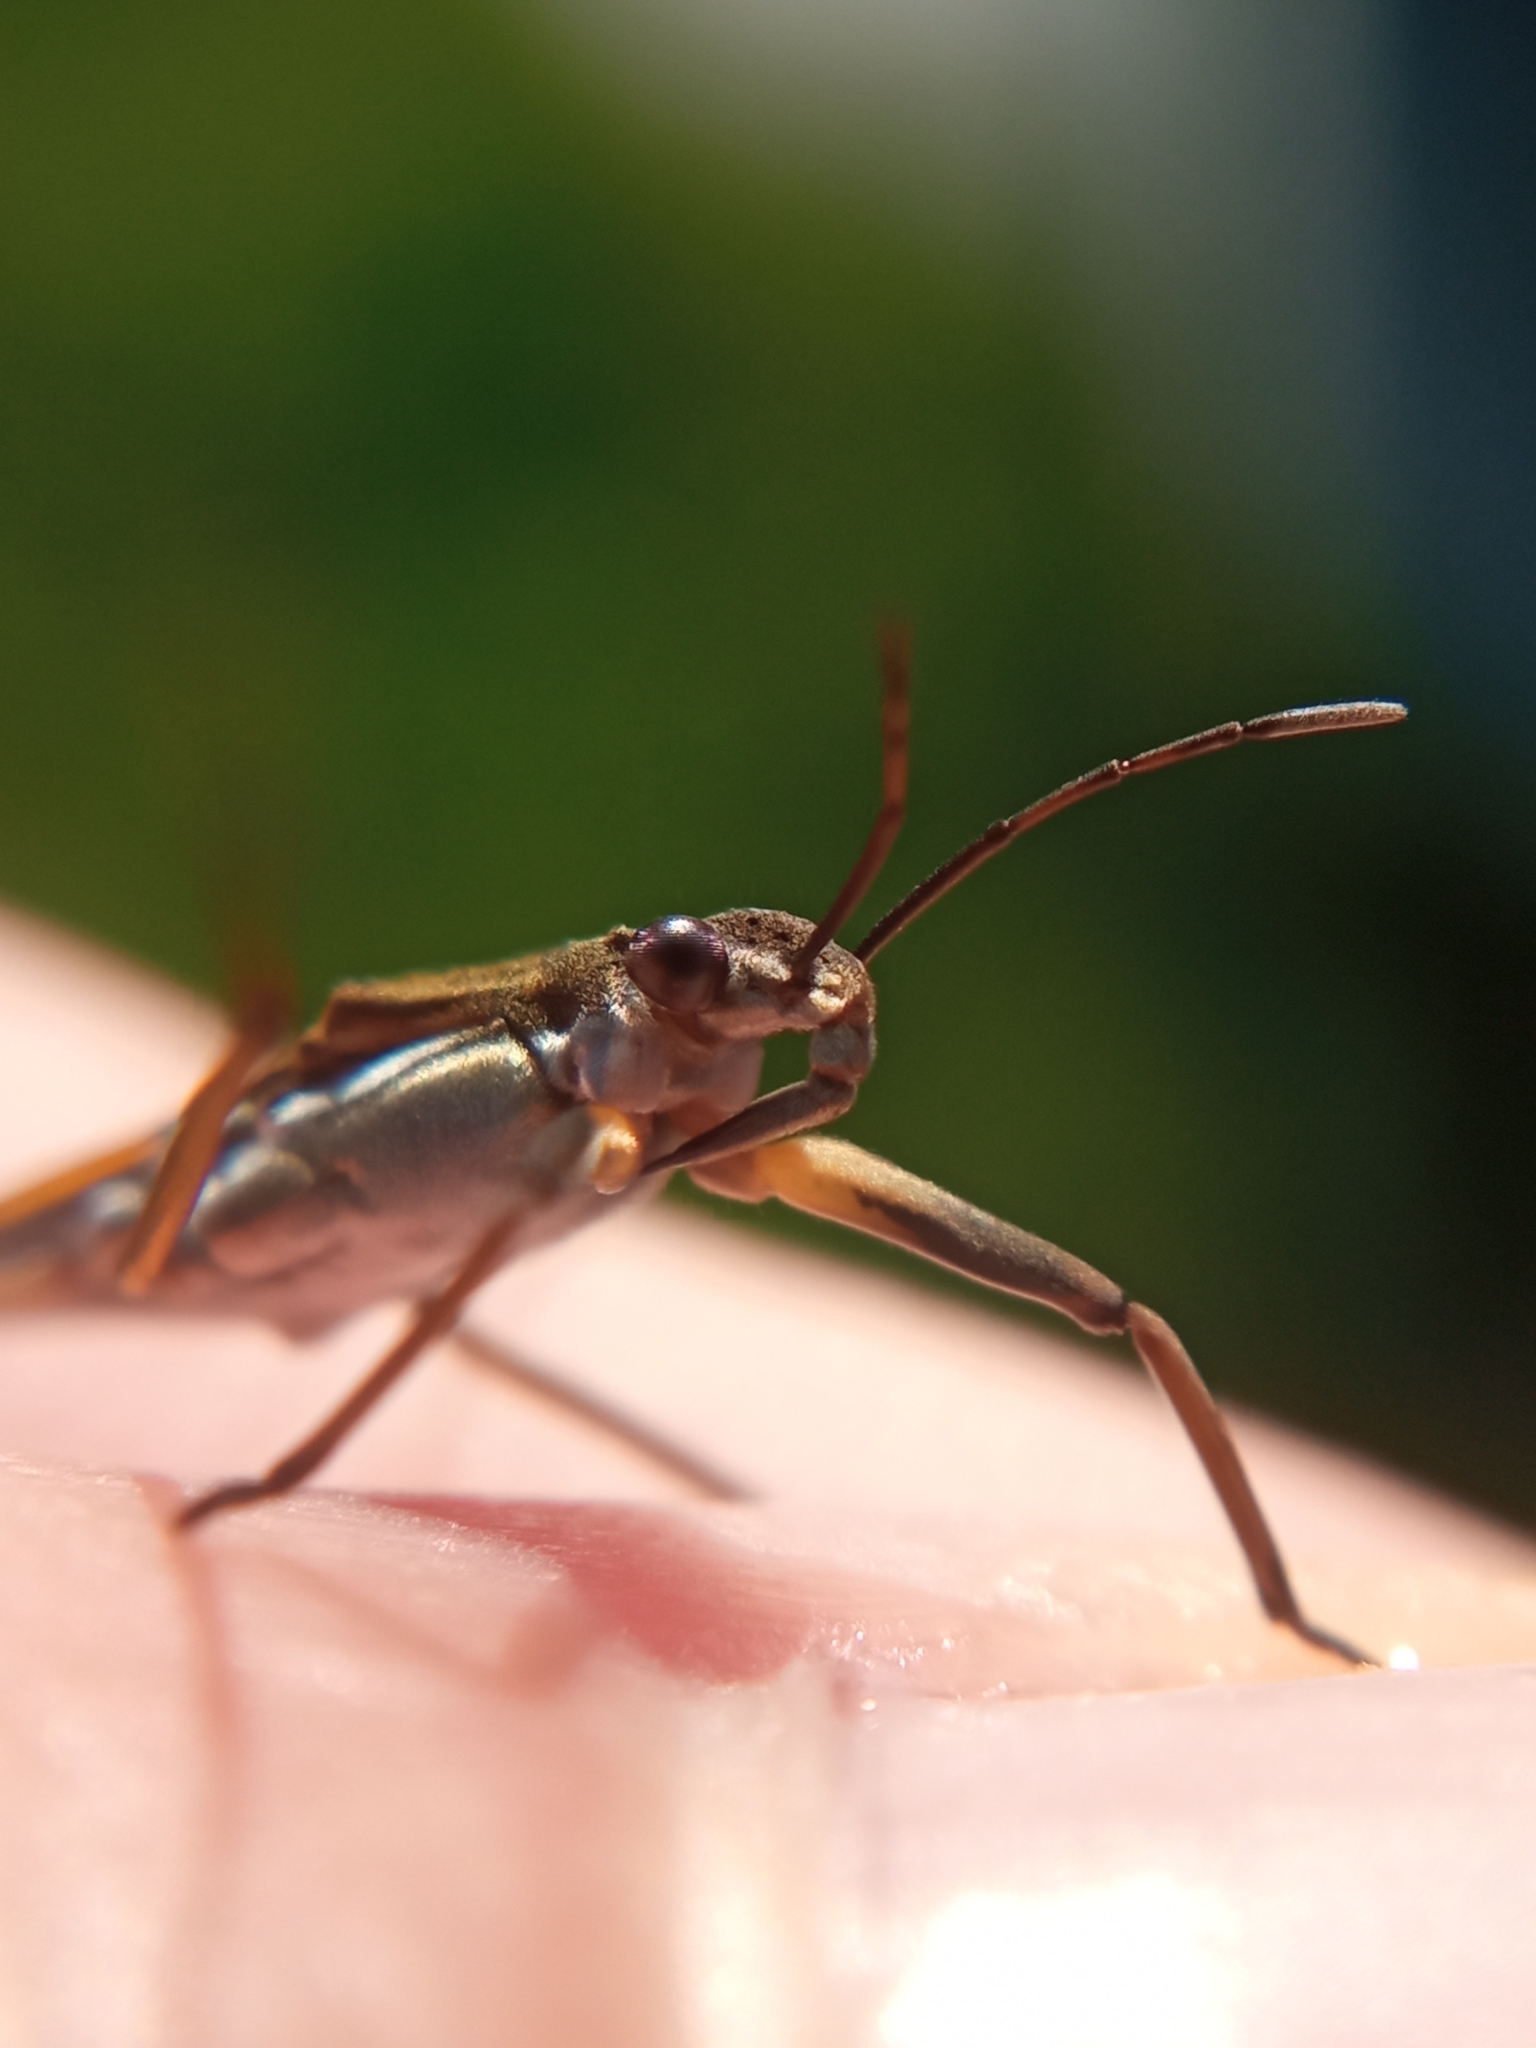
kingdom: Animalia
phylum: Arthropoda
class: Insecta
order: Hemiptera
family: Gerridae
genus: Gerris
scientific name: Gerris gibbifer
